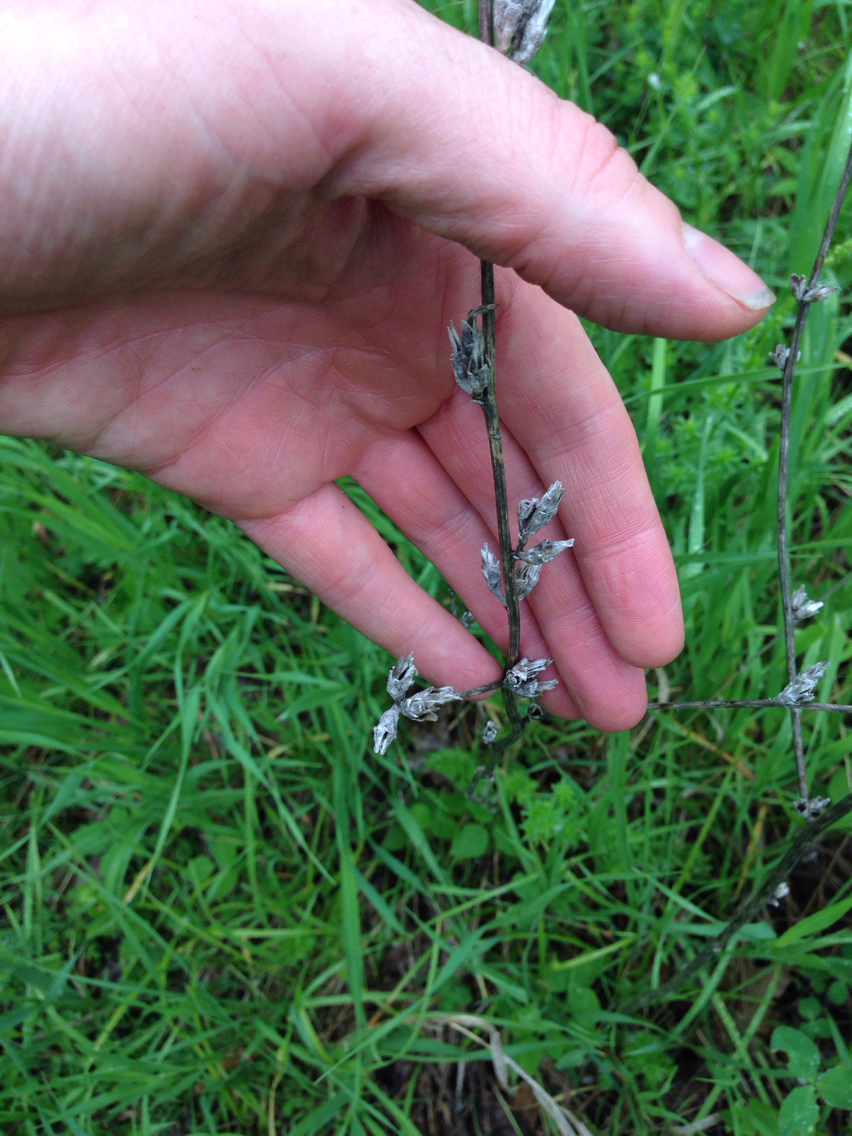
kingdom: Plantae
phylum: Tracheophyta
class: Magnoliopsida
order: Asterales
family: Asteraceae
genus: Cichorium
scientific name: Cichorium intybus
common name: Chicory
